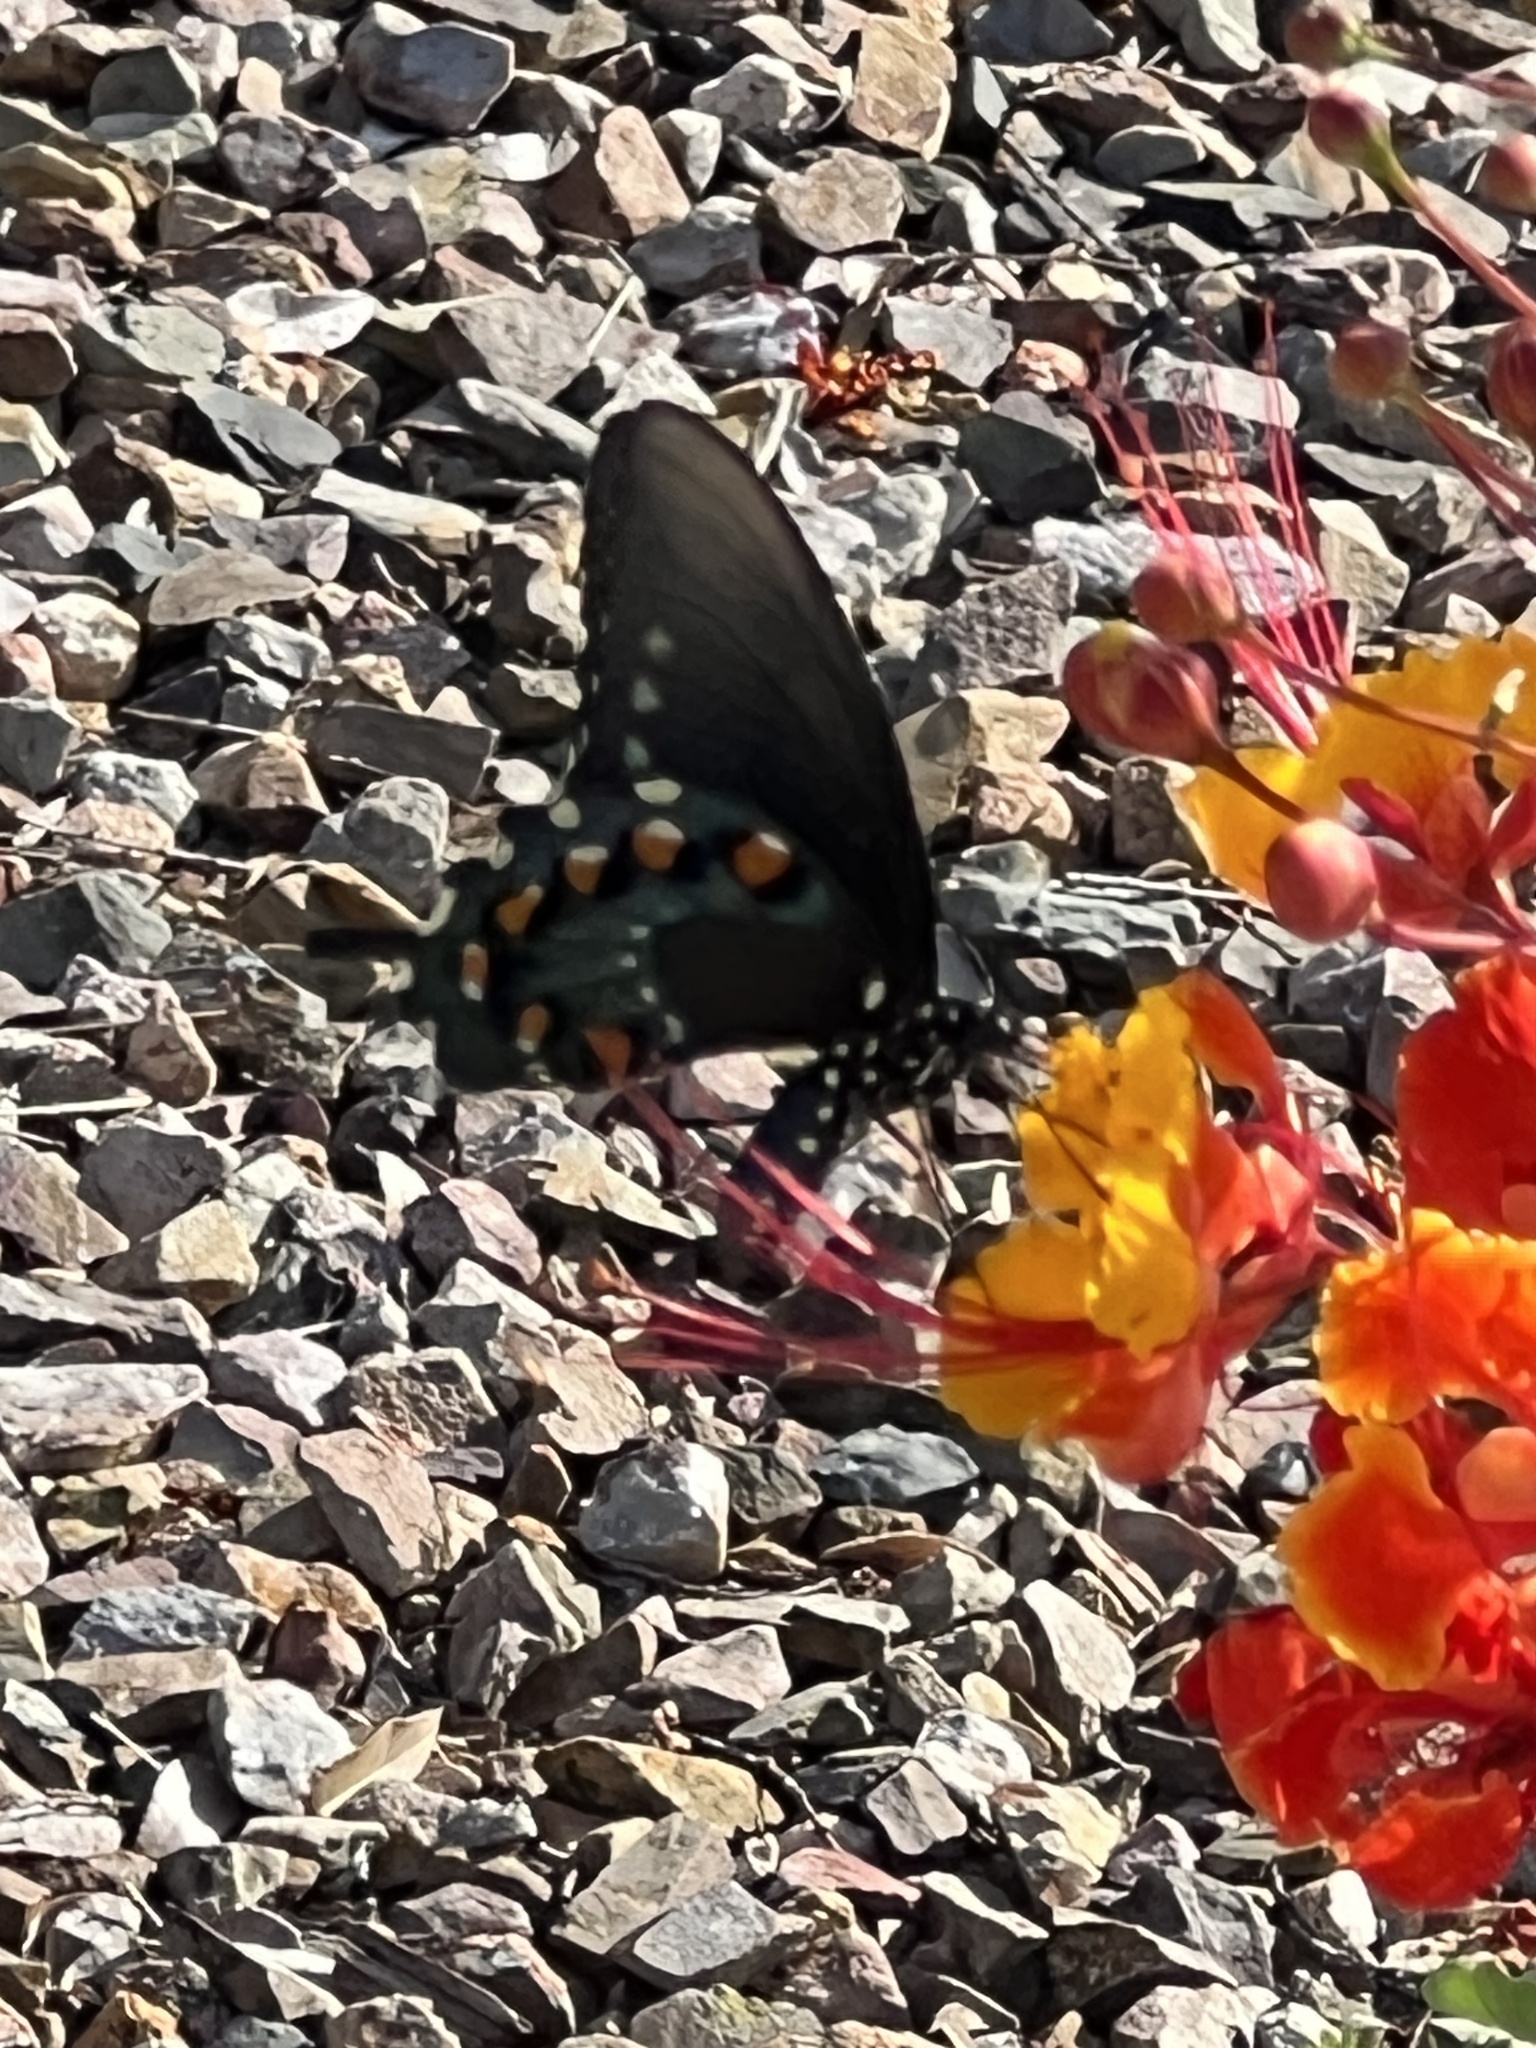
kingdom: Animalia
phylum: Arthropoda
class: Insecta
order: Lepidoptera
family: Papilionidae
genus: Battus
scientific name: Battus philenor
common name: Pipevine swallowtail
